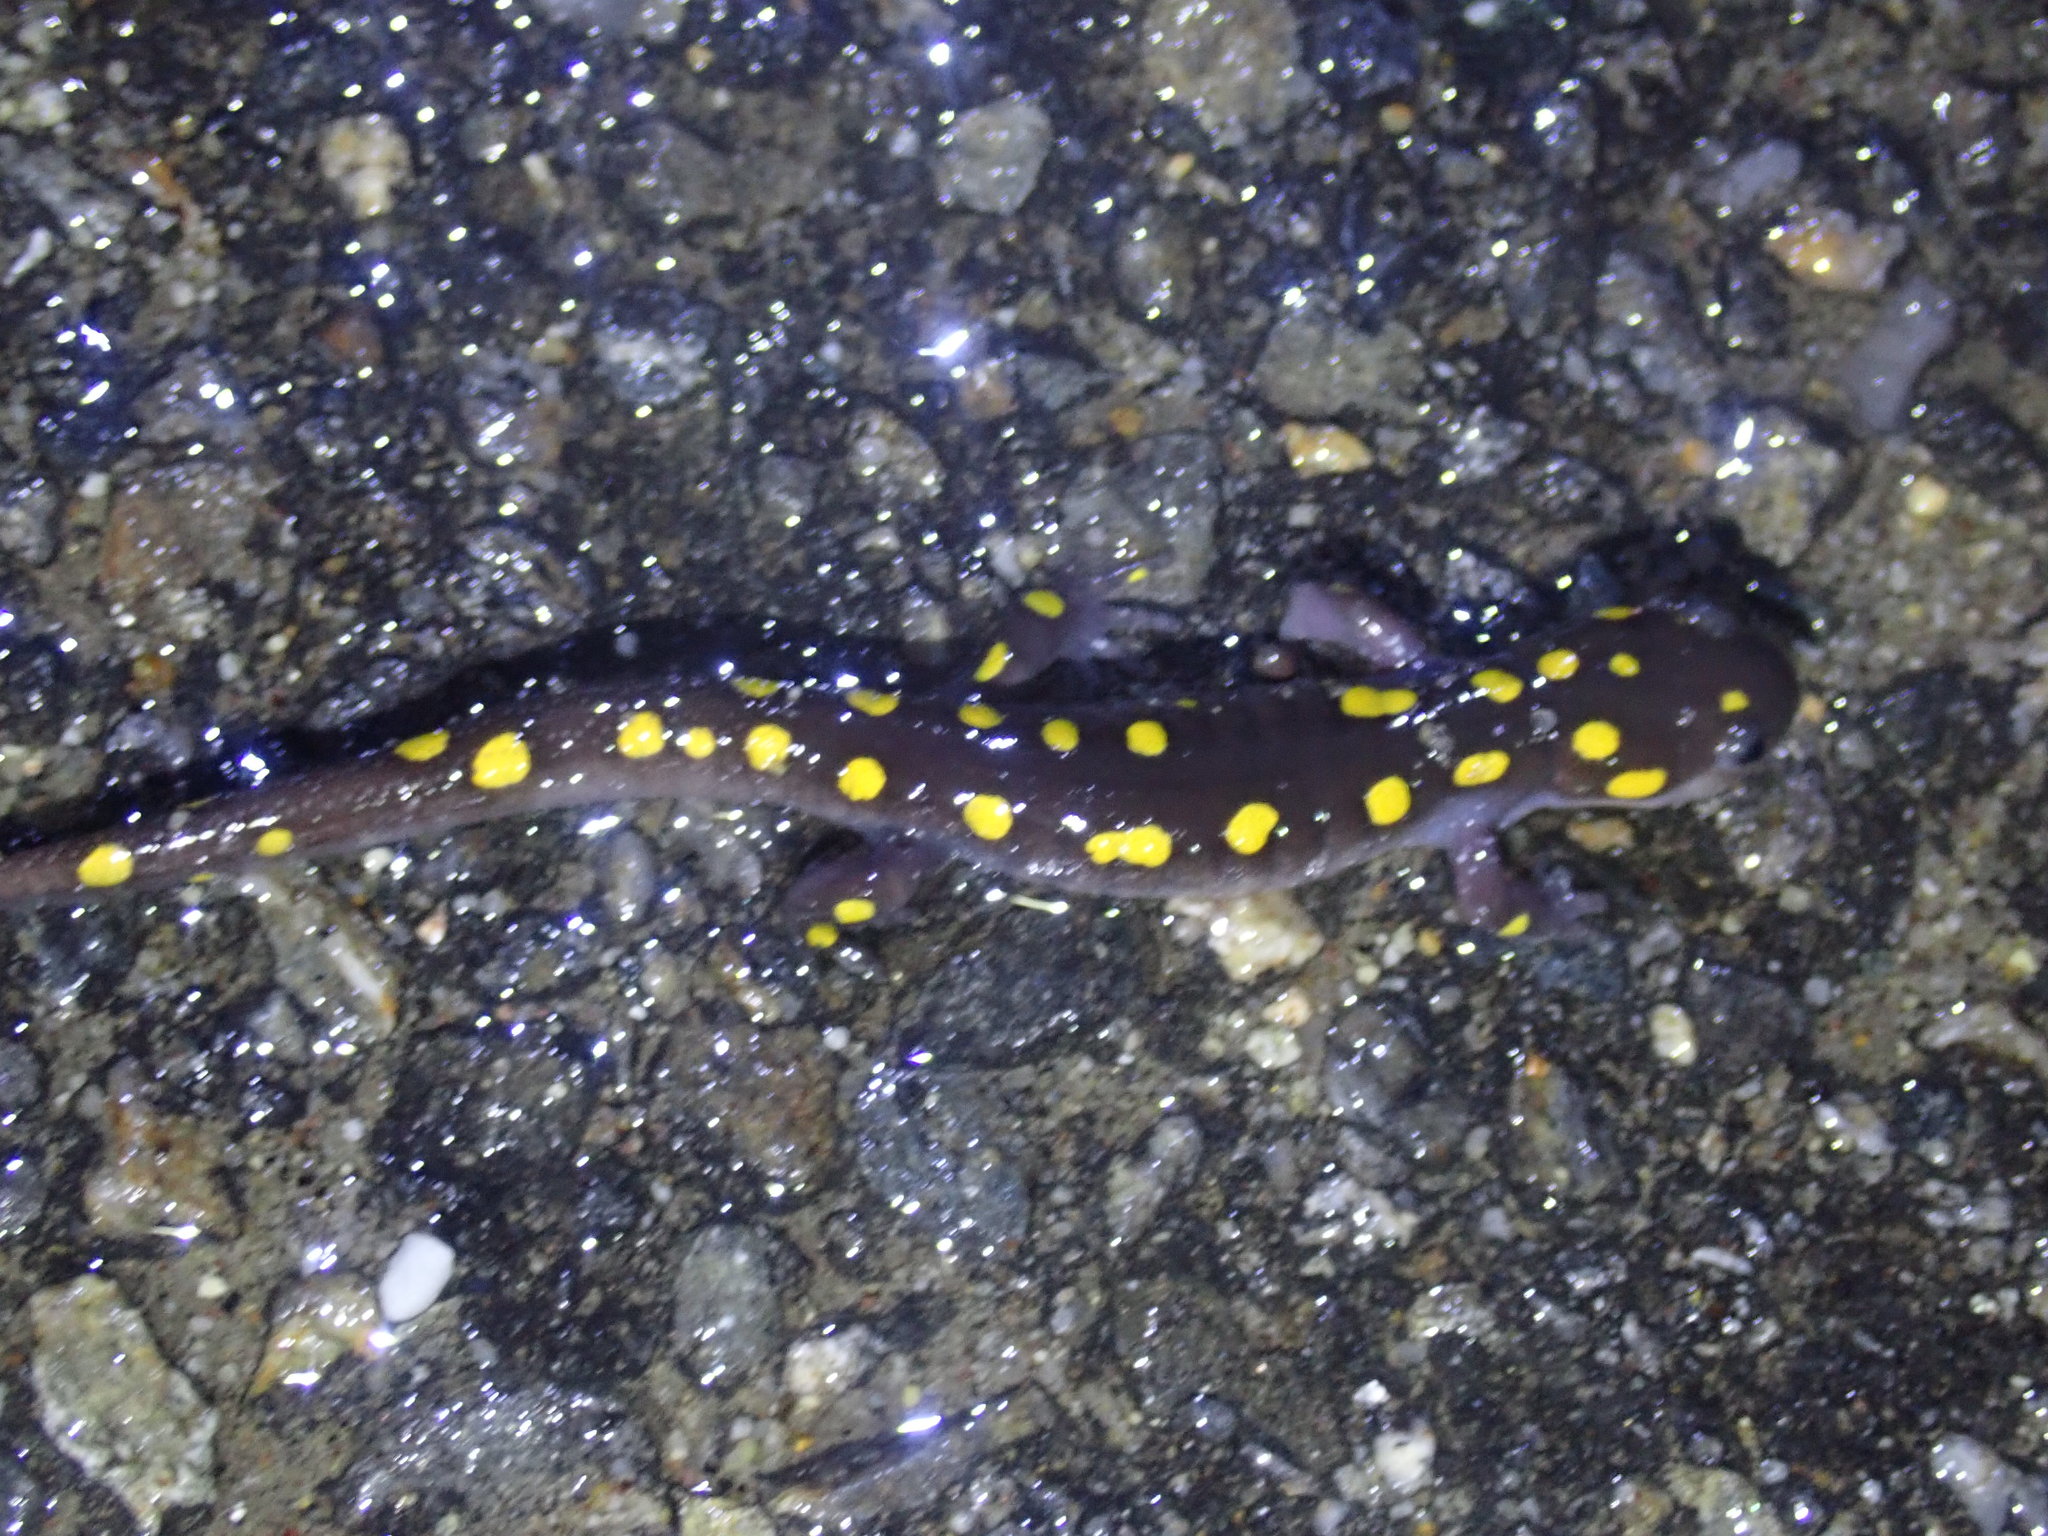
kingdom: Animalia
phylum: Chordata
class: Amphibia
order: Caudata
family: Ambystomatidae
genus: Ambystoma
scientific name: Ambystoma maculatum
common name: Spotted salamander
